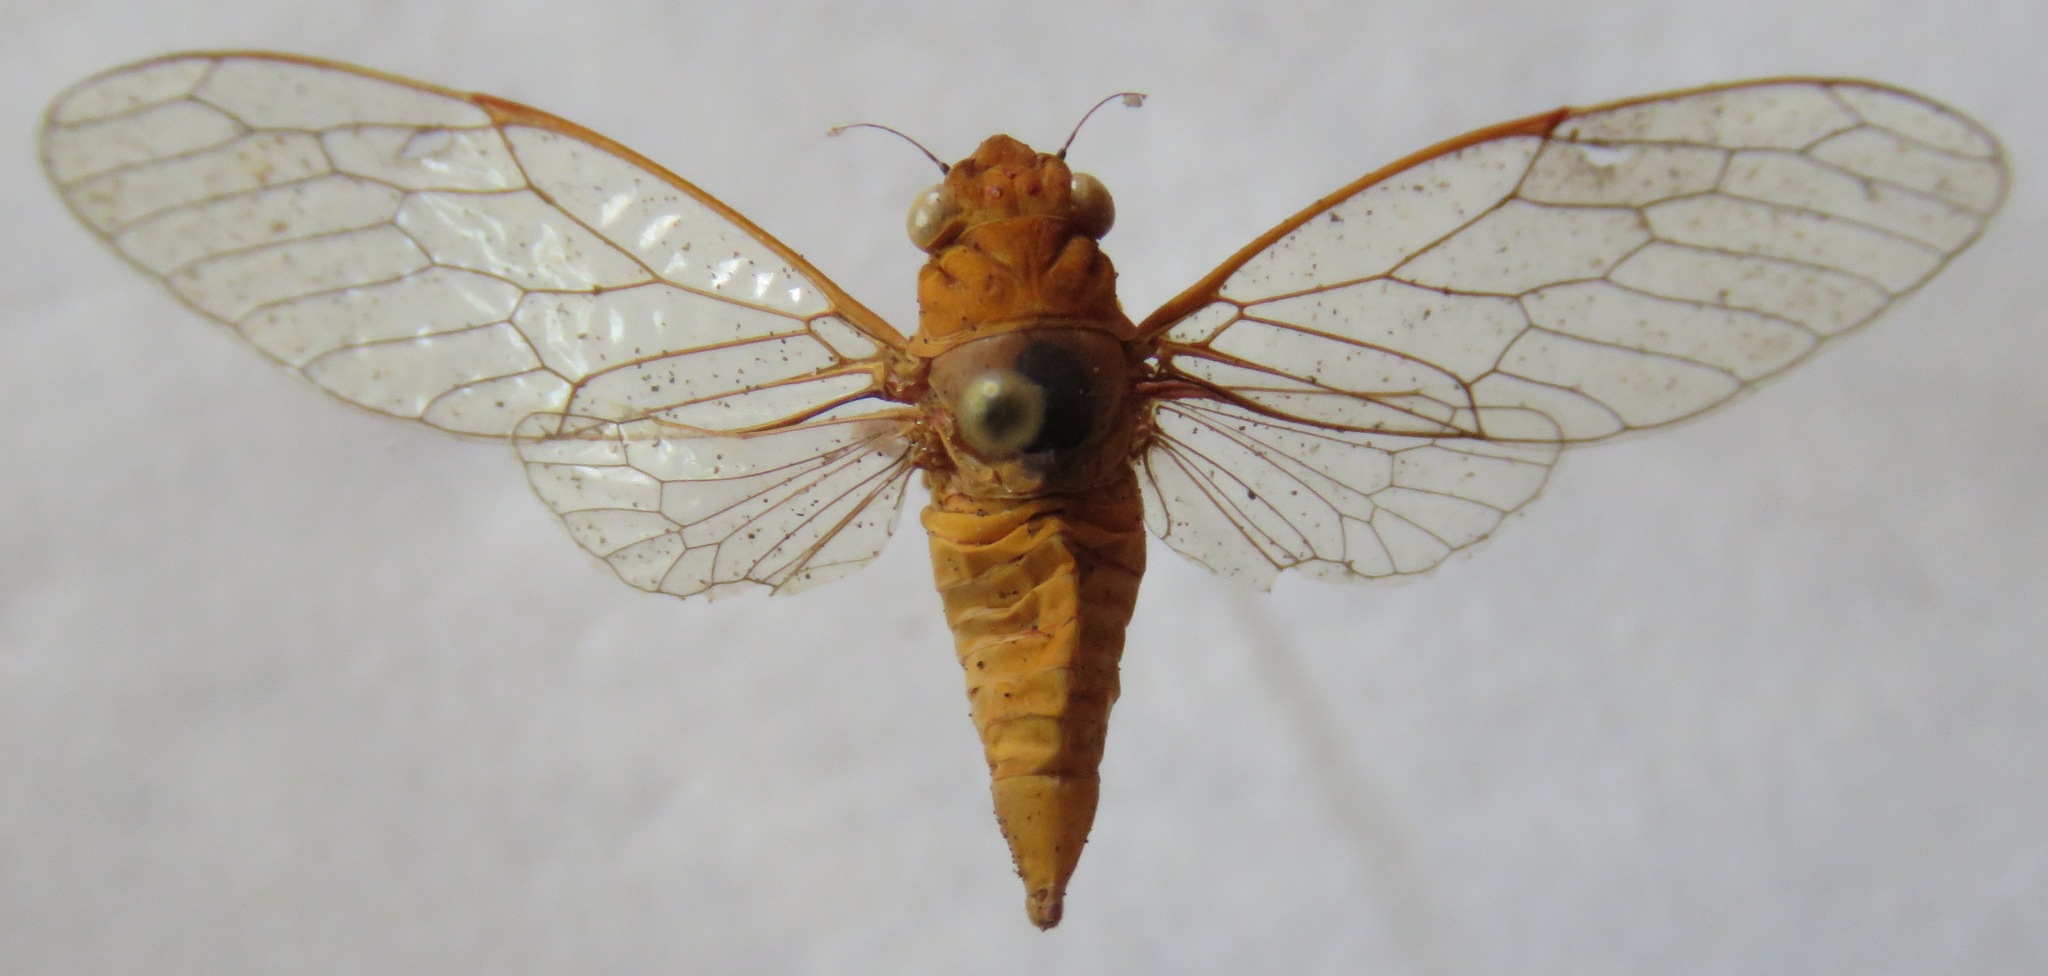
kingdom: Animalia
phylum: Arthropoda
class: Insecta
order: Hemiptera
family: Cicadidae
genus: Conibosa
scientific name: Conibosa occidentis
